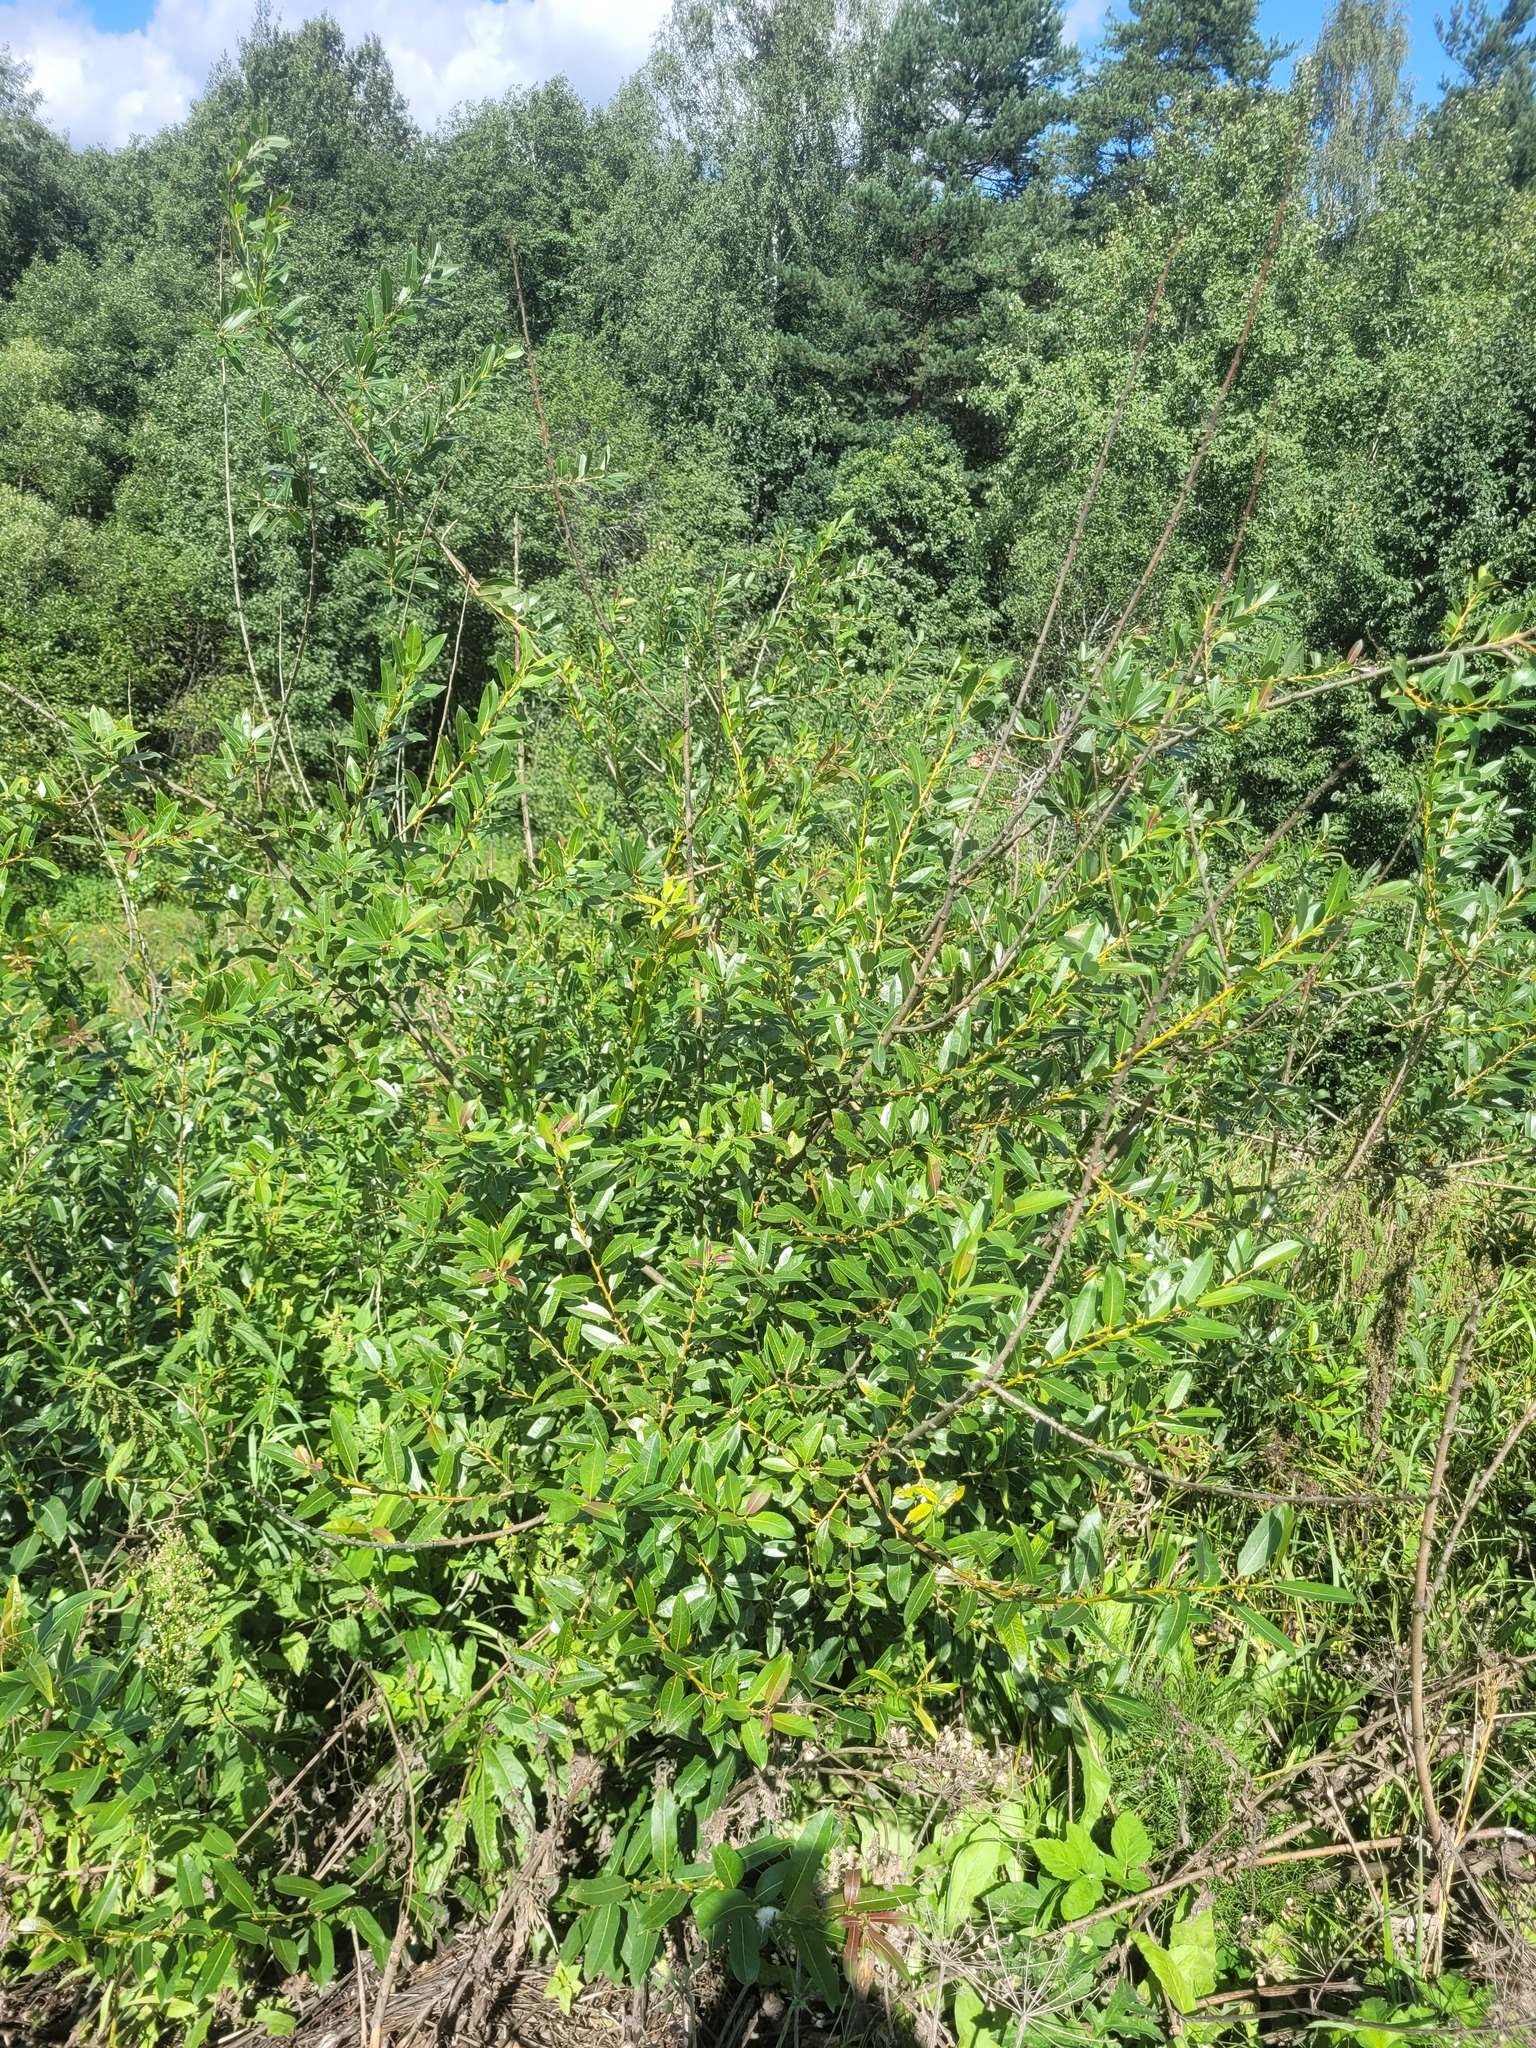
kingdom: Plantae
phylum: Tracheophyta
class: Magnoliopsida
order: Malpighiales
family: Salicaceae
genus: Salix
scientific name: Salix triandra
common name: Almond willow
